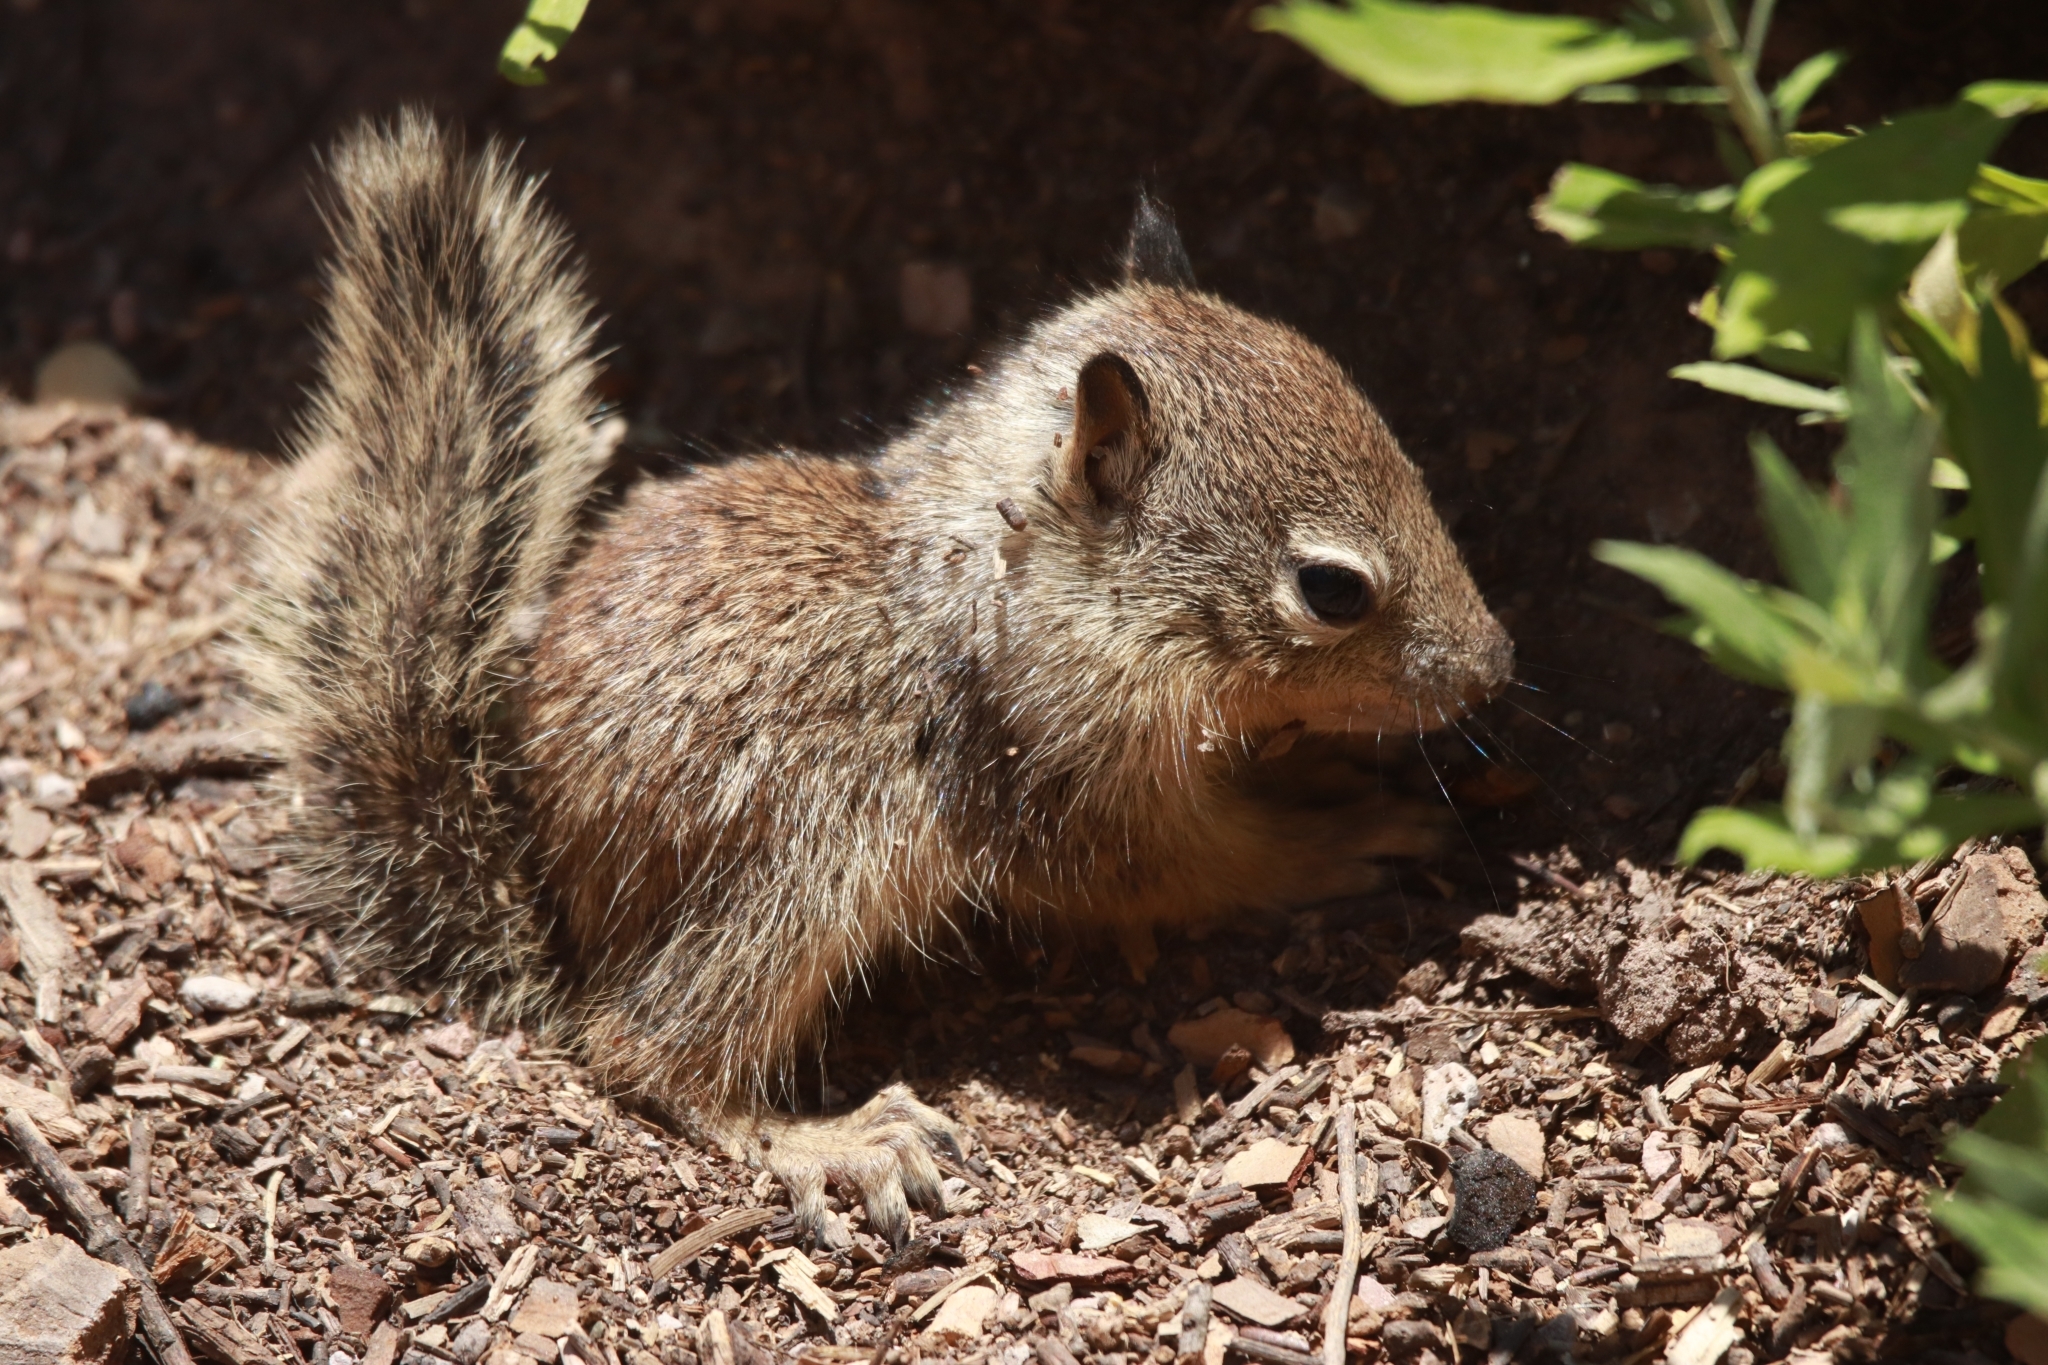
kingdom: Animalia
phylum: Chordata
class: Mammalia
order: Rodentia
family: Sciuridae
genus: Otospermophilus
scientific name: Otospermophilus beecheyi
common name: California ground squirrel
